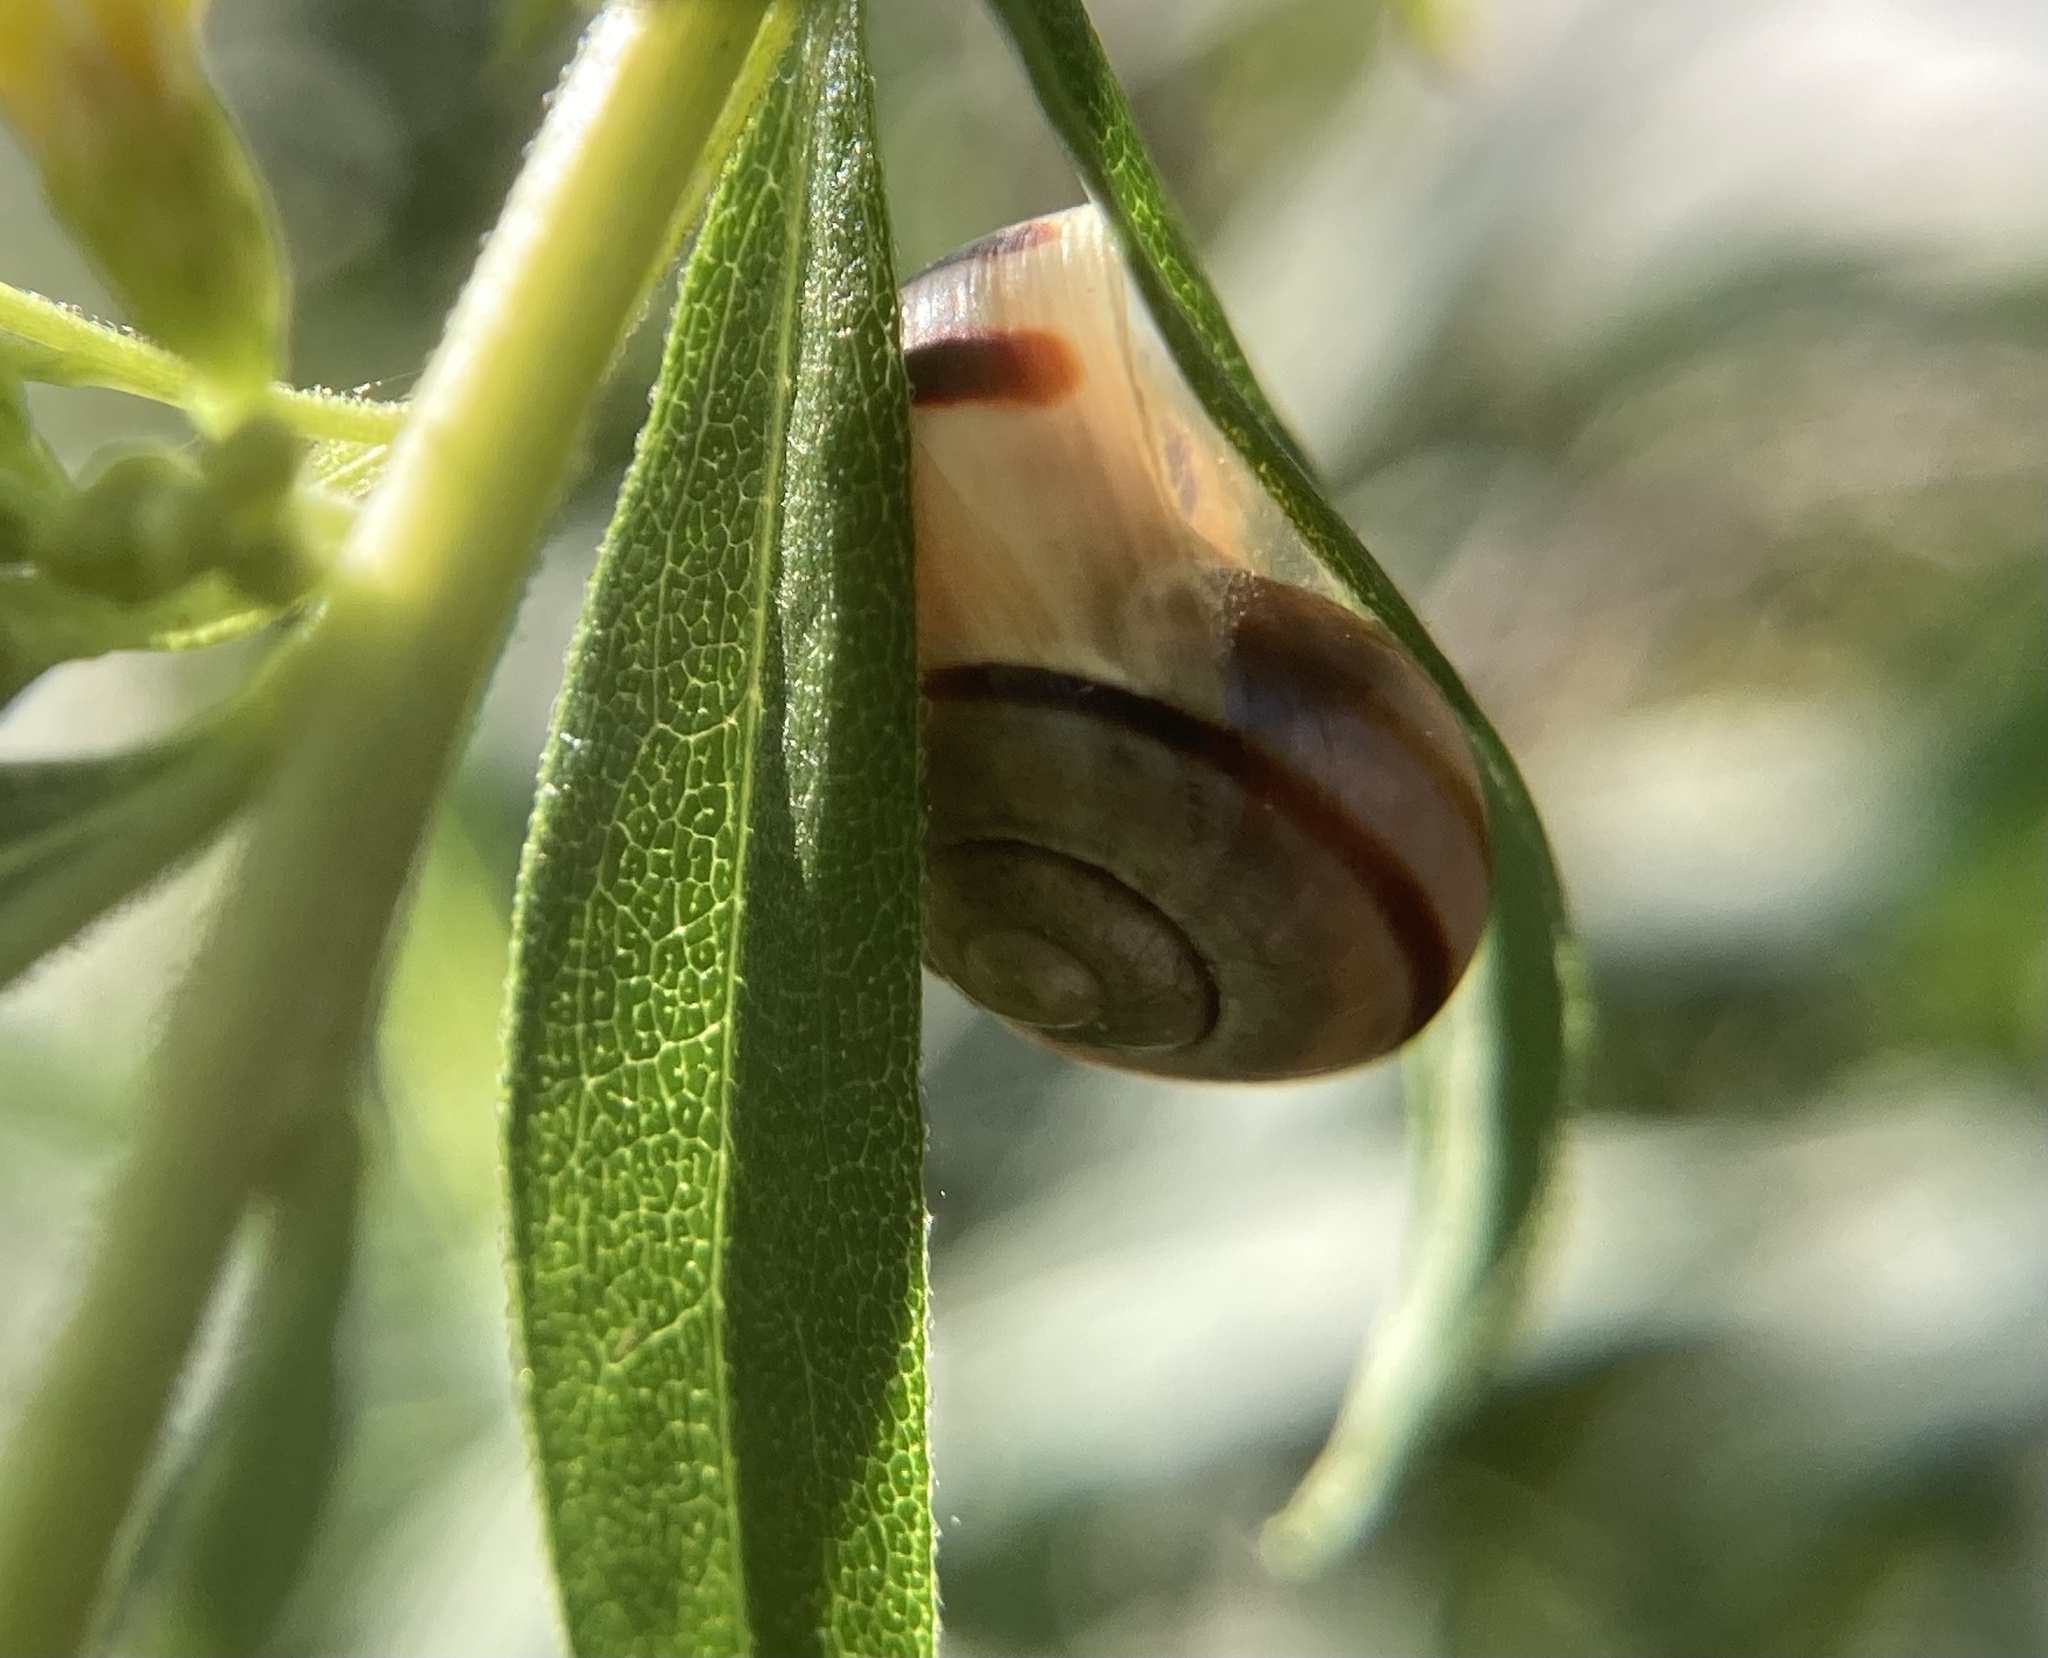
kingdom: Animalia
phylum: Mollusca
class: Gastropoda
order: Stylommatophora
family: Helicidae
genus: Cepaea
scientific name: Cepaea nemoralis
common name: Grovesnail
